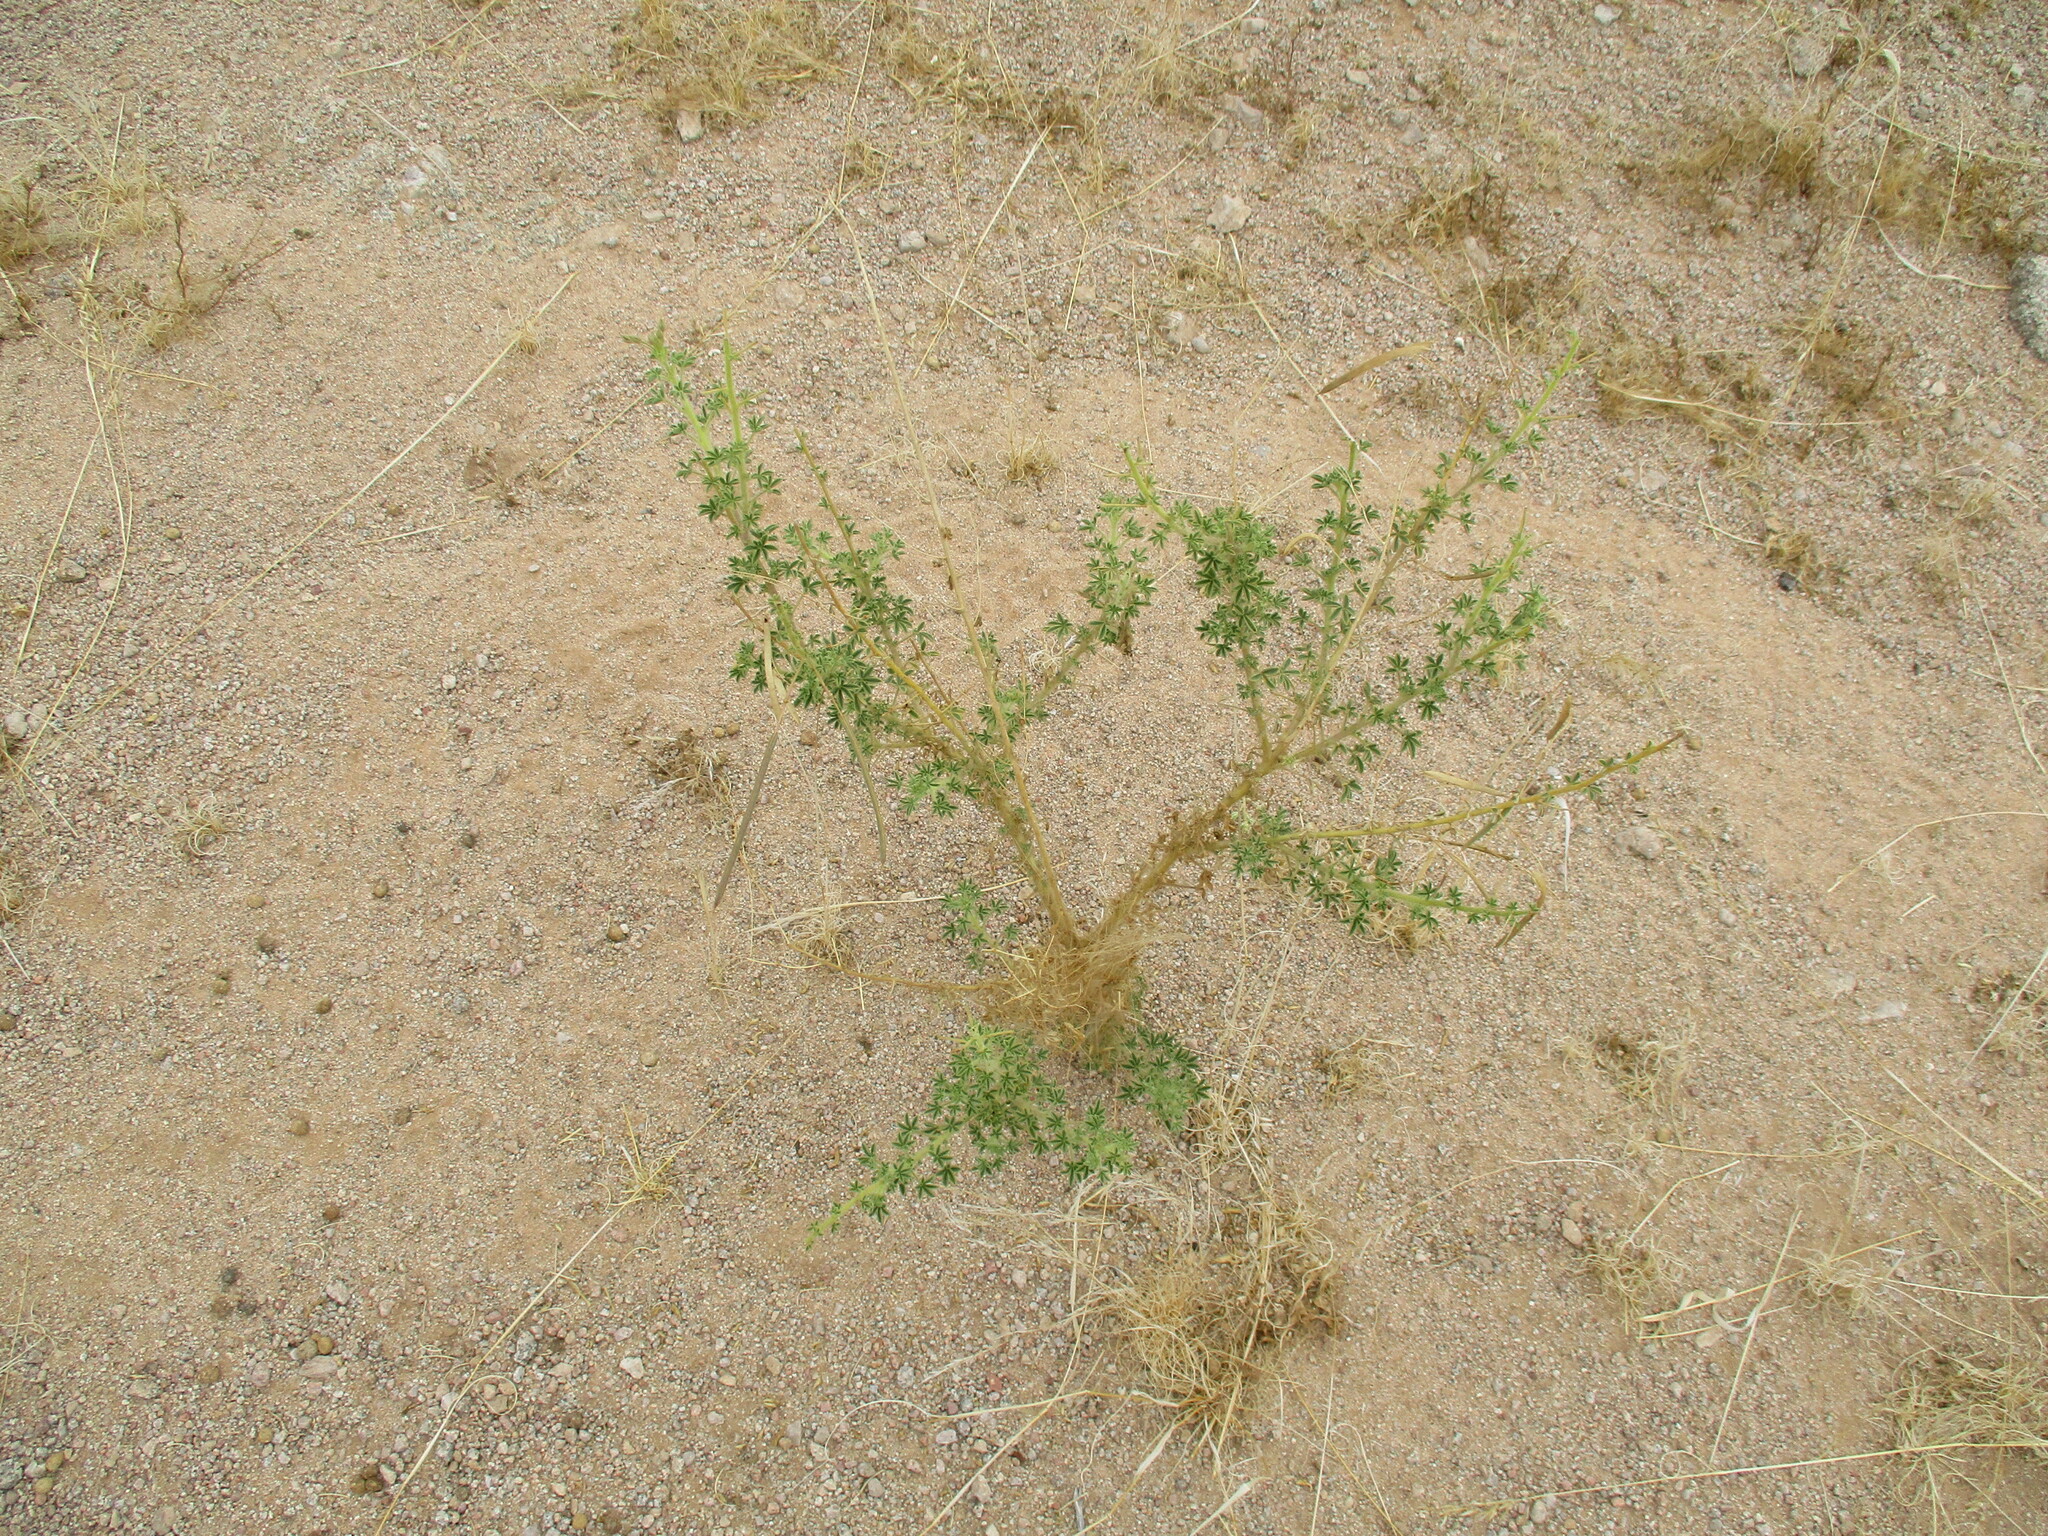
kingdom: Plantae
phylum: Tracheophyta
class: Magnoliopsida
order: Brassicales
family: Cleomaceae
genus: Cleome
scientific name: Cleome foliosa
